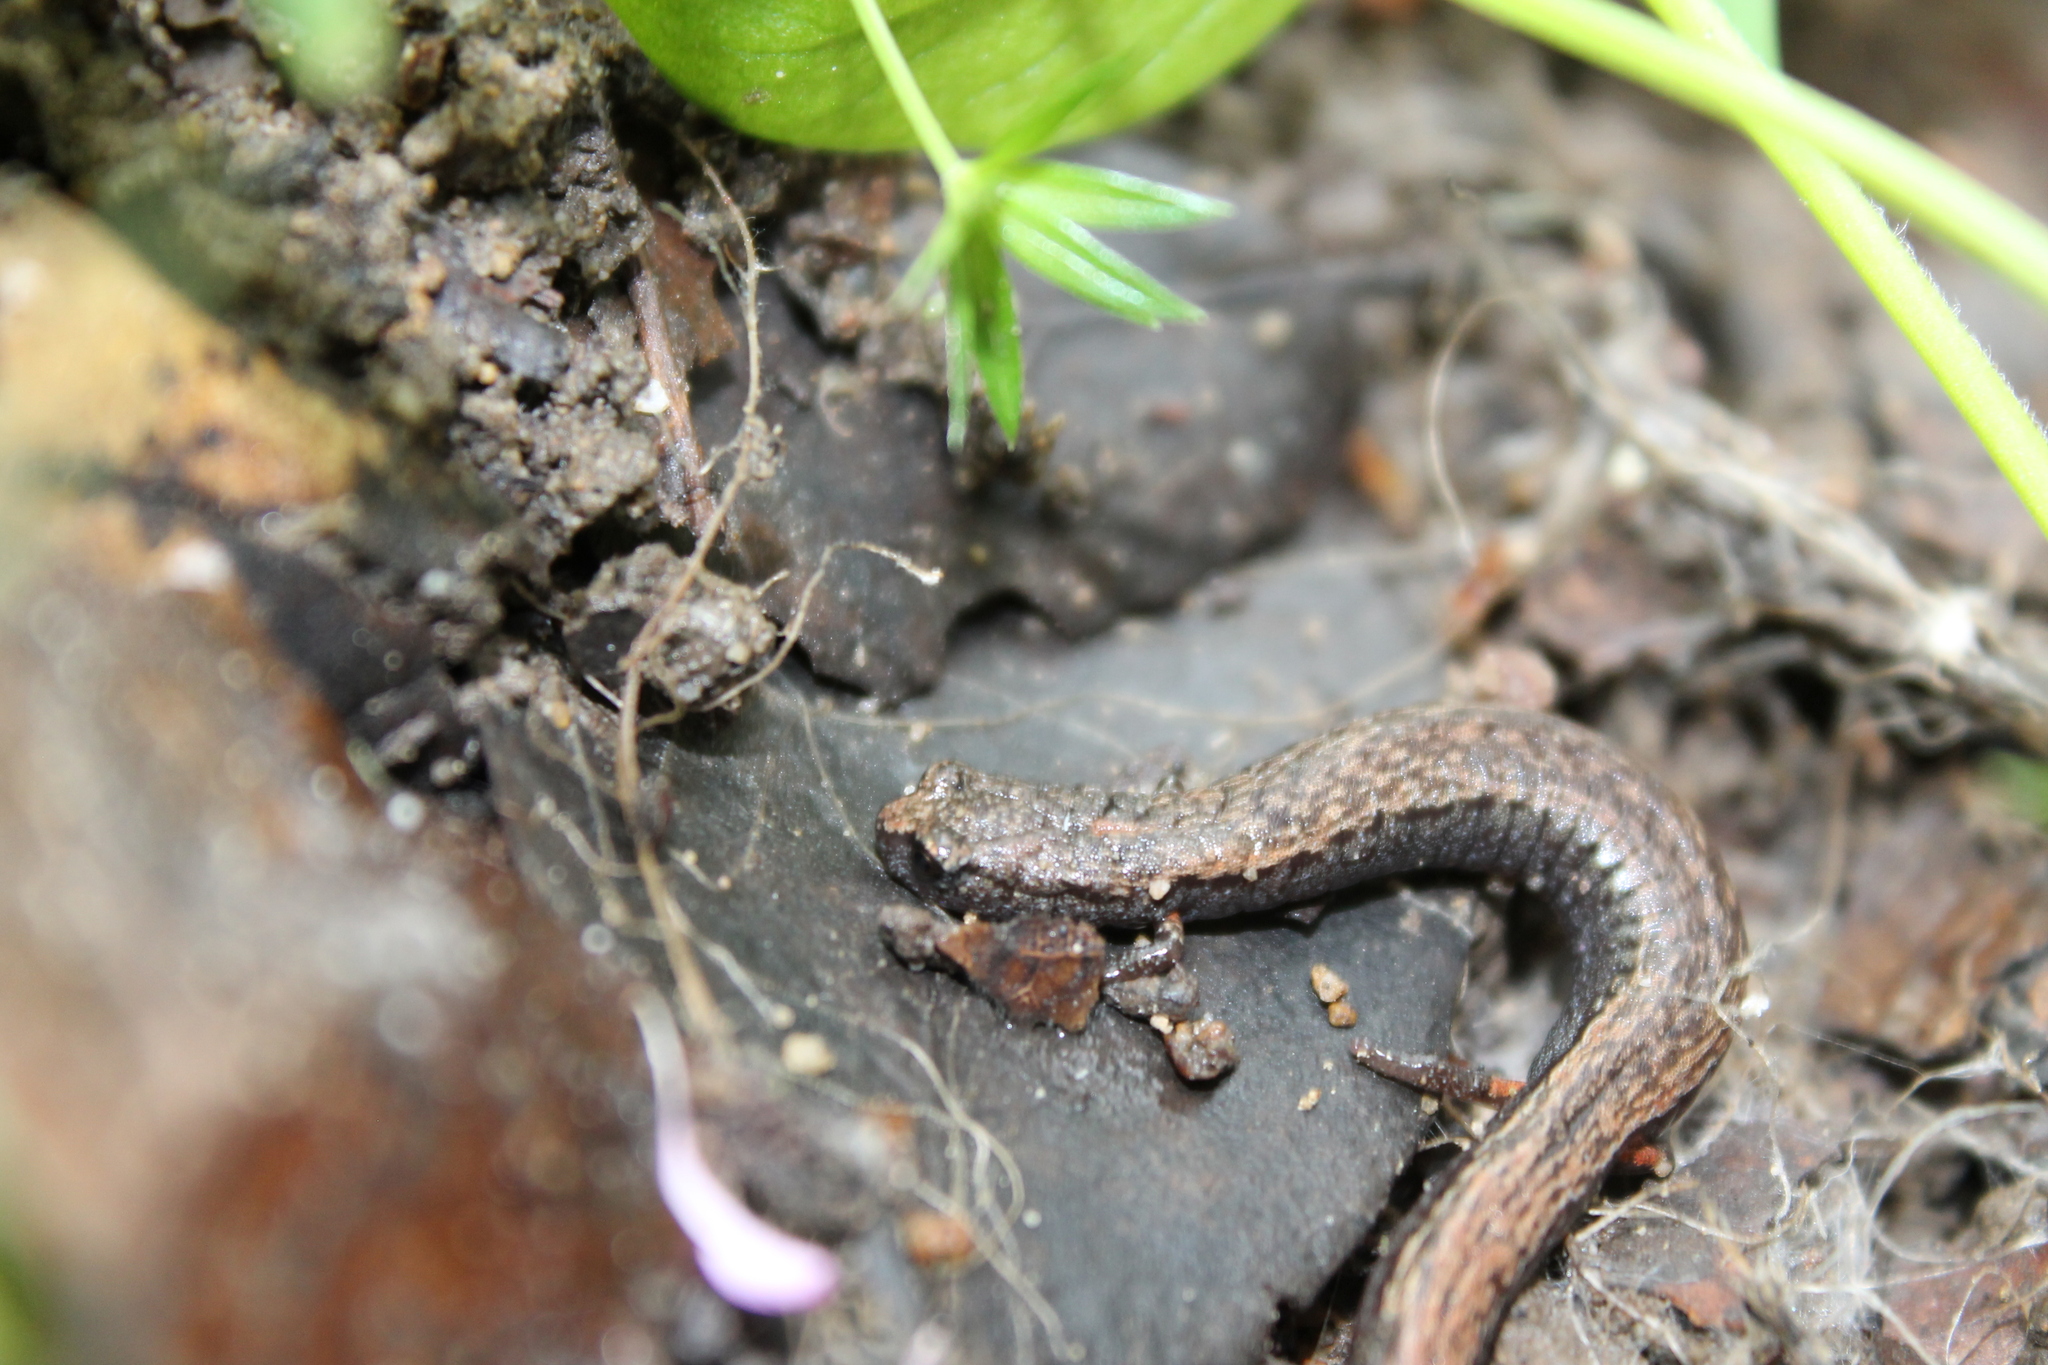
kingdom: Animalia
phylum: Chordata
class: Amphibia
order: Caudata
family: Plethodontidae
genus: Batrachoseps
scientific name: Batrachoseps attenuatus
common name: California slender salamander
